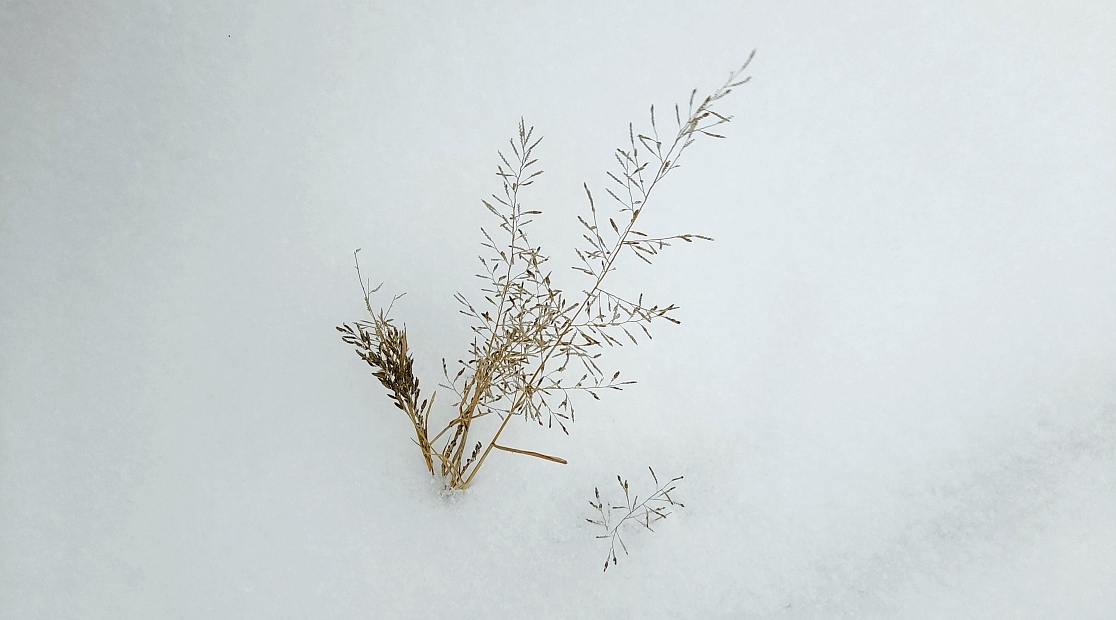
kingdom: Plantae
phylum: Tracheophyta
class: Liliopsida
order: Poales
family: Poaceae
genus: Eragrostis
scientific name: Eragrostis minor
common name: Small love-grass
